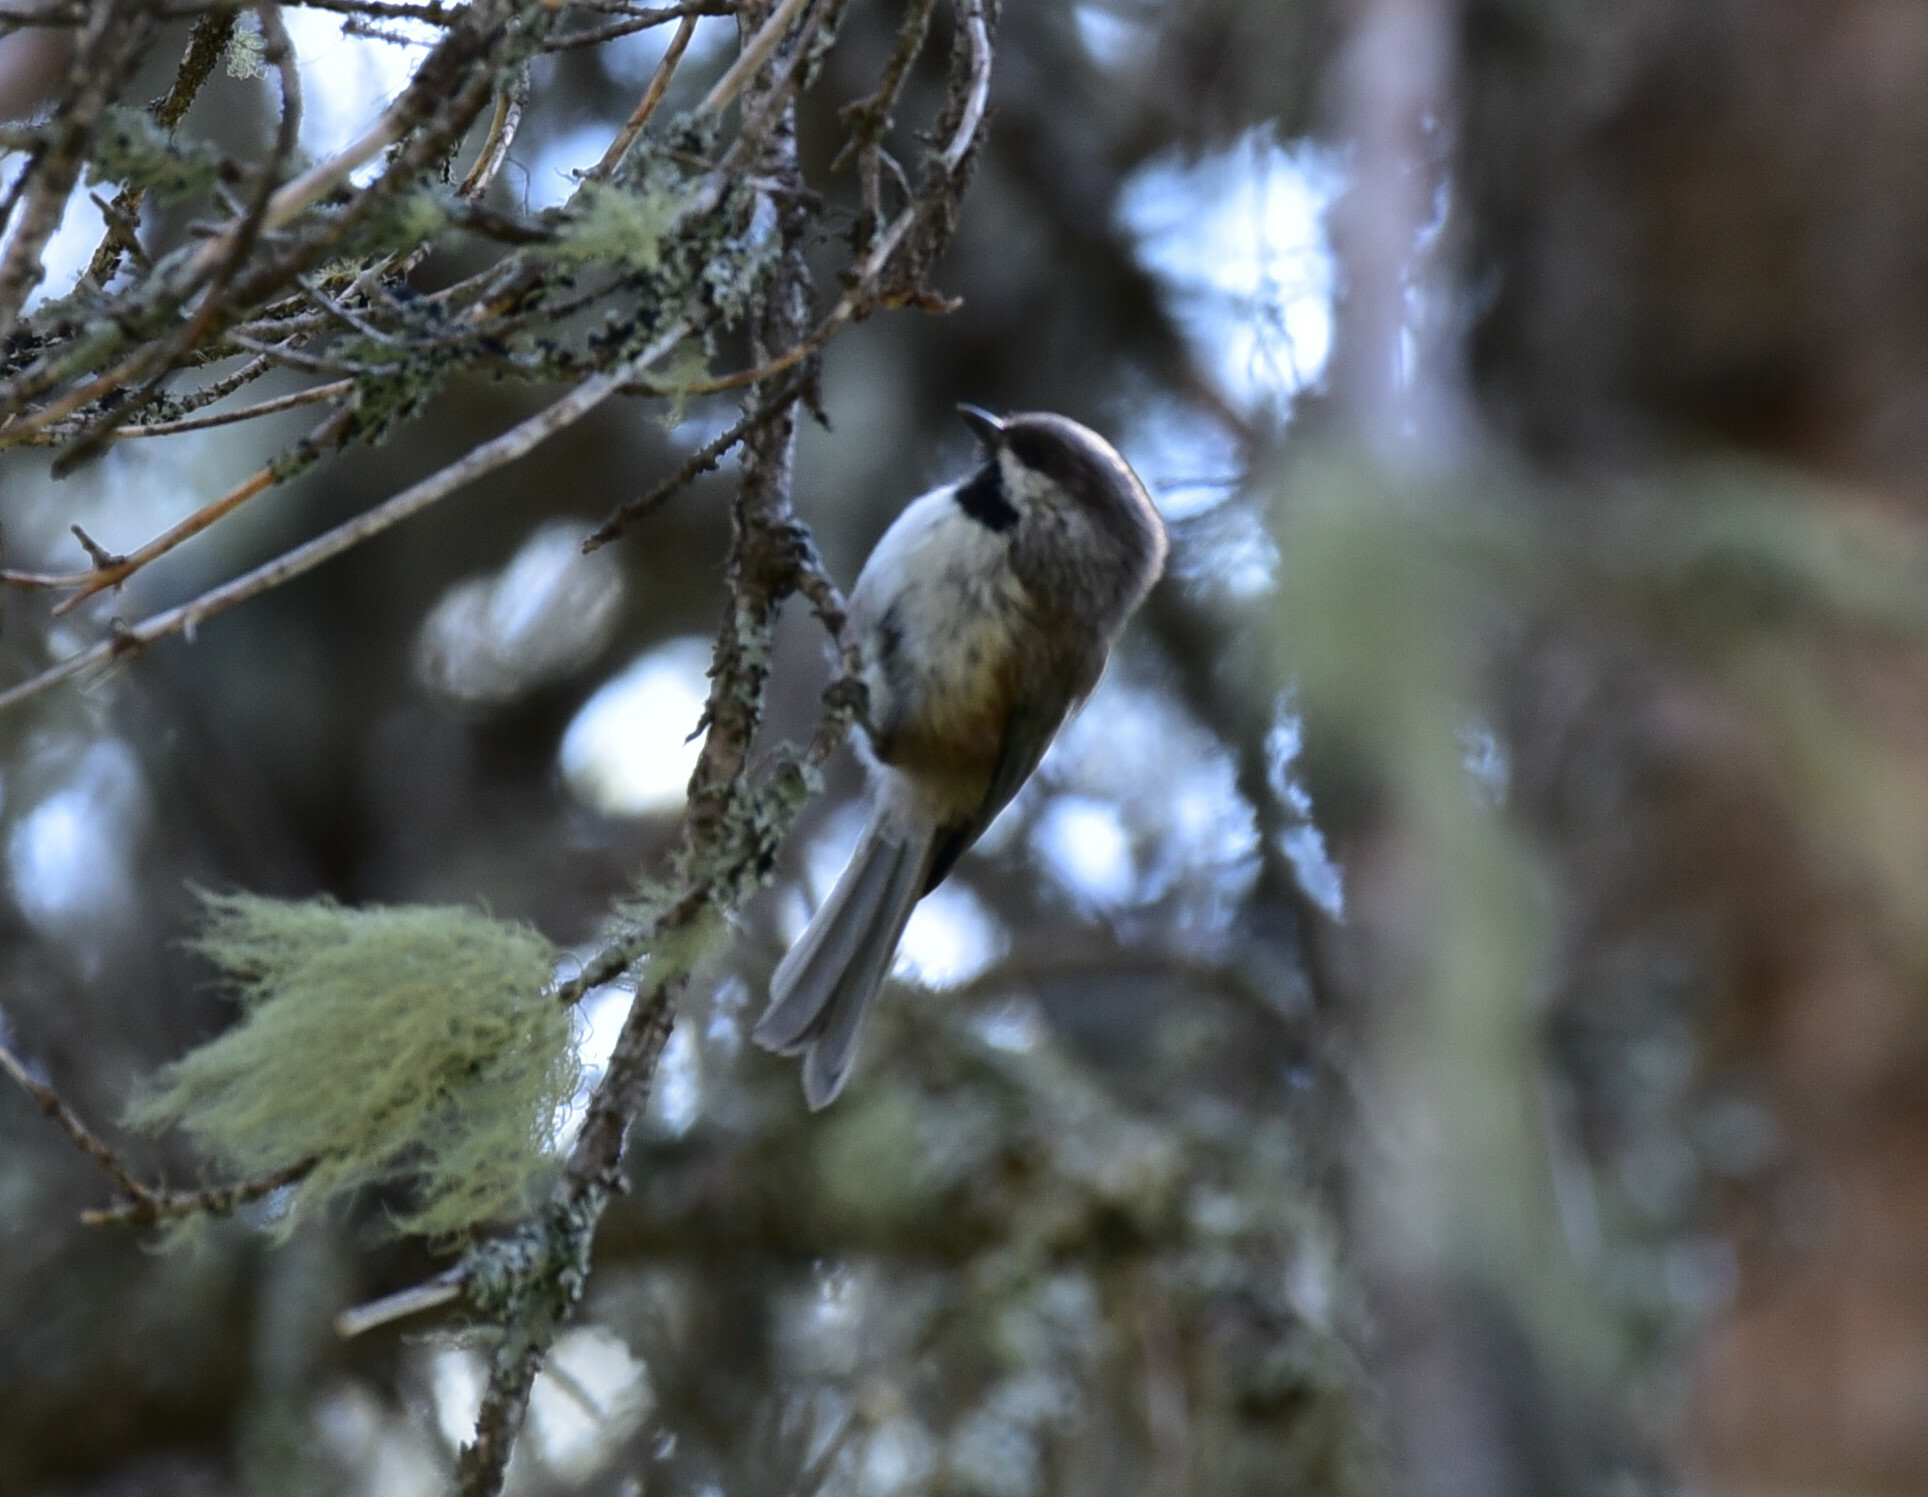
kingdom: Animalia
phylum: Chordata
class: Aves
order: Passeriformes
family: Paridae
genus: Poecile
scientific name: Poecile hudsonicus
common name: Boreal chickadee
